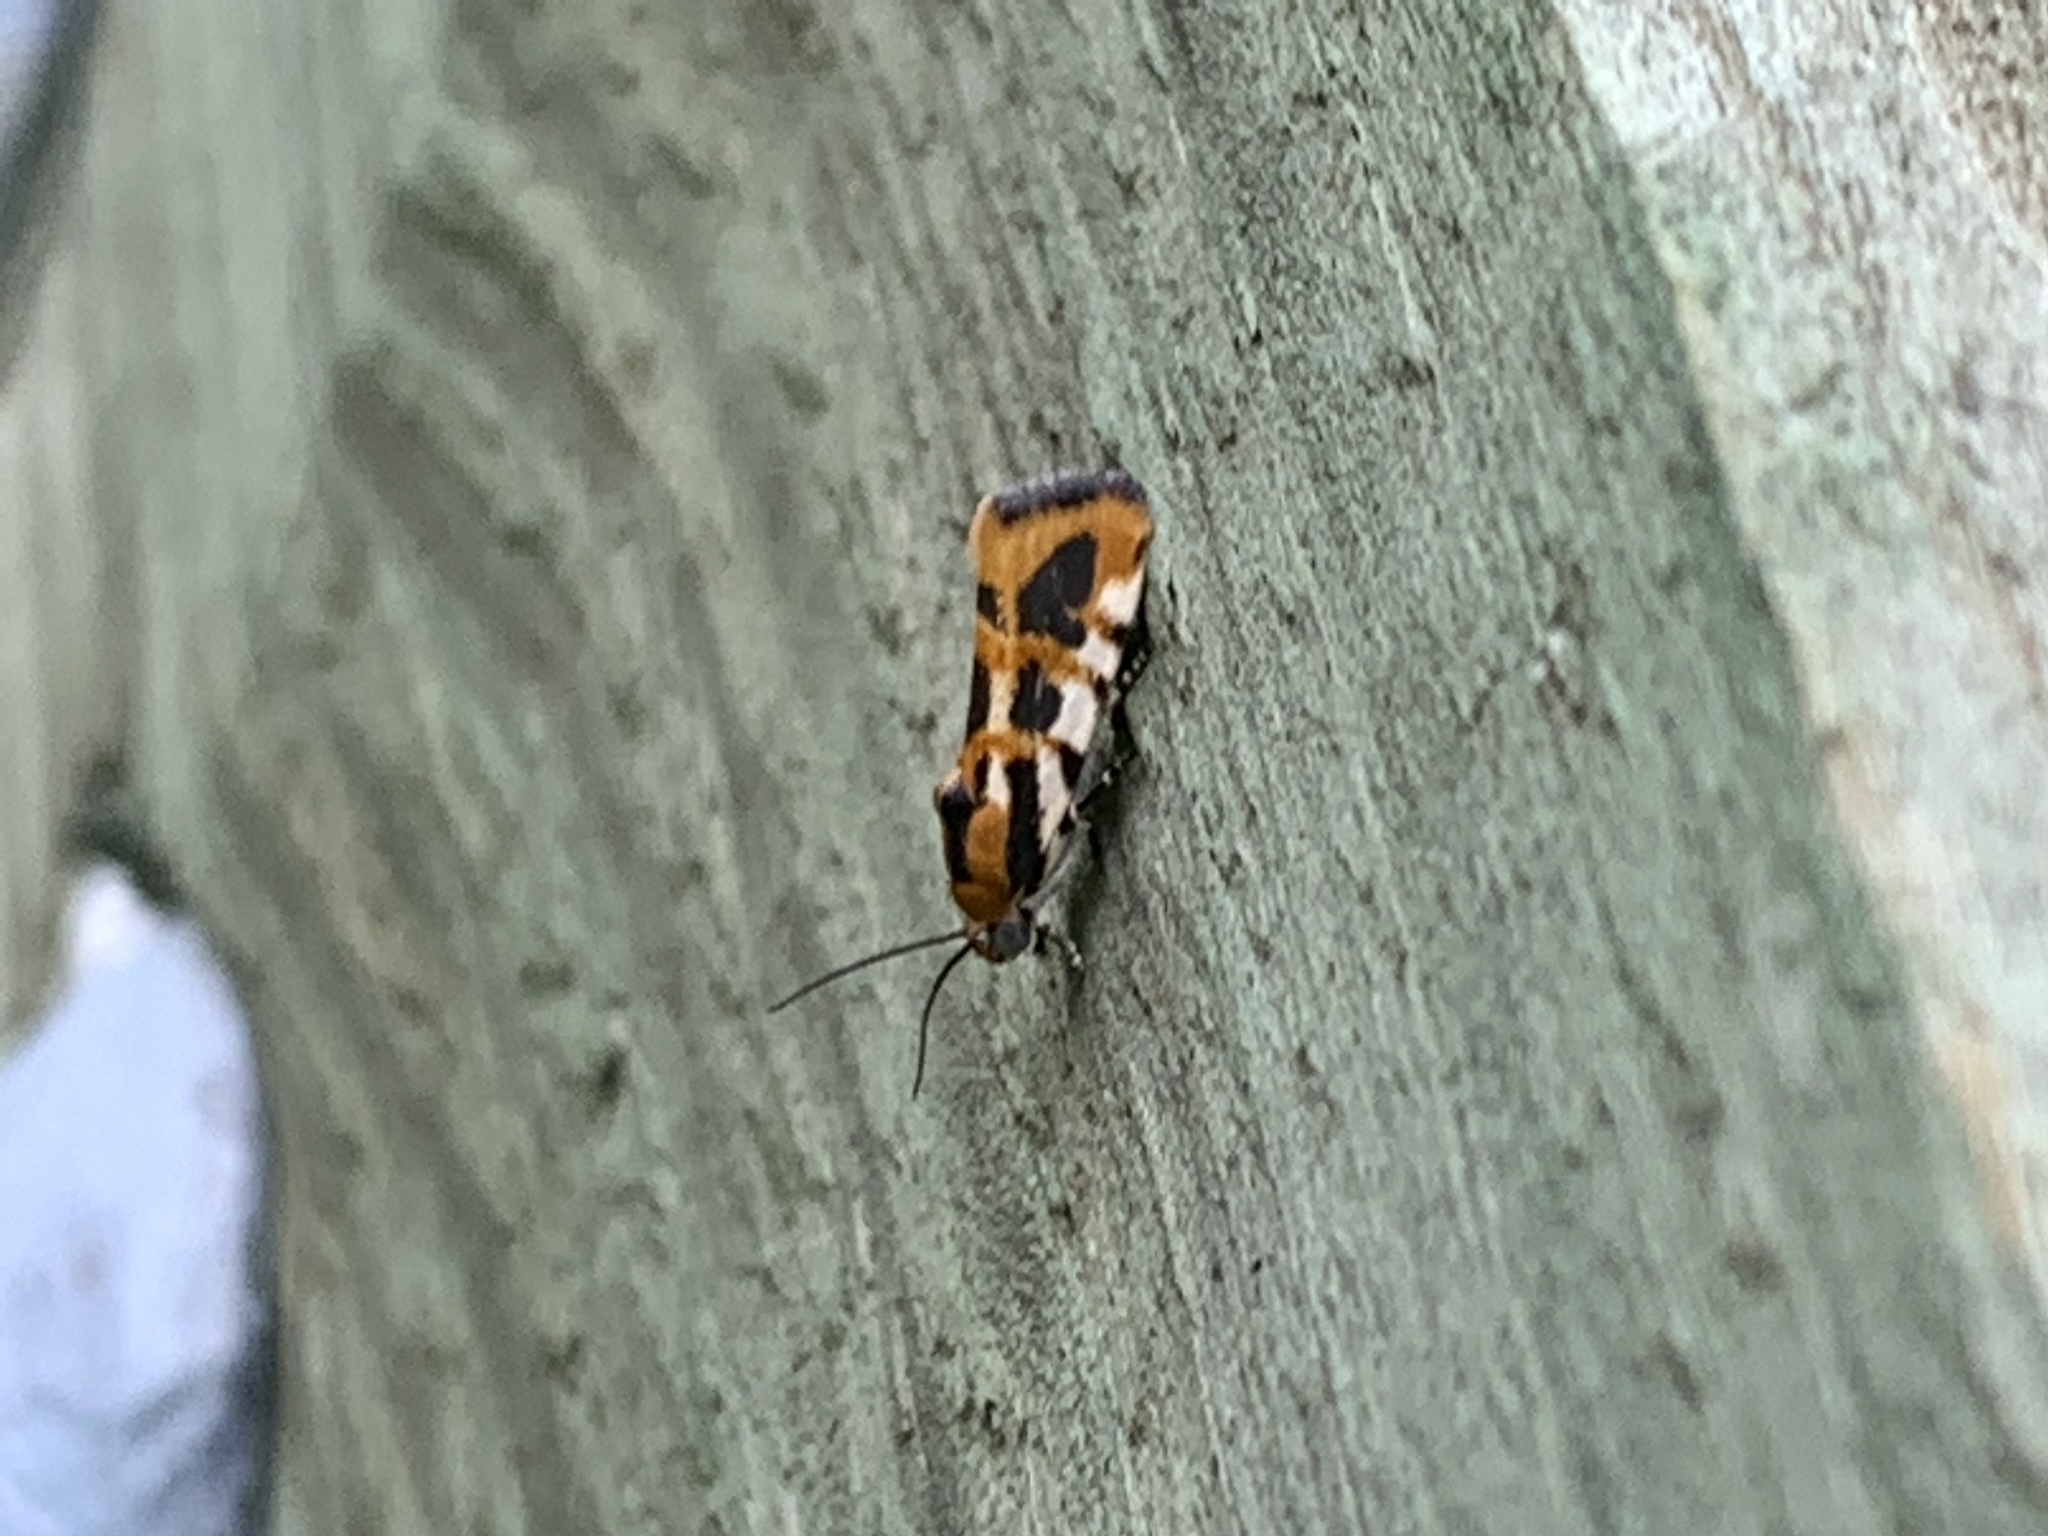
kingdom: Animalia
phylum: Arthropoda
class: Insecta
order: Lepidoptera
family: Noctuidae
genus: Acontia
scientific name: Acontia leo
